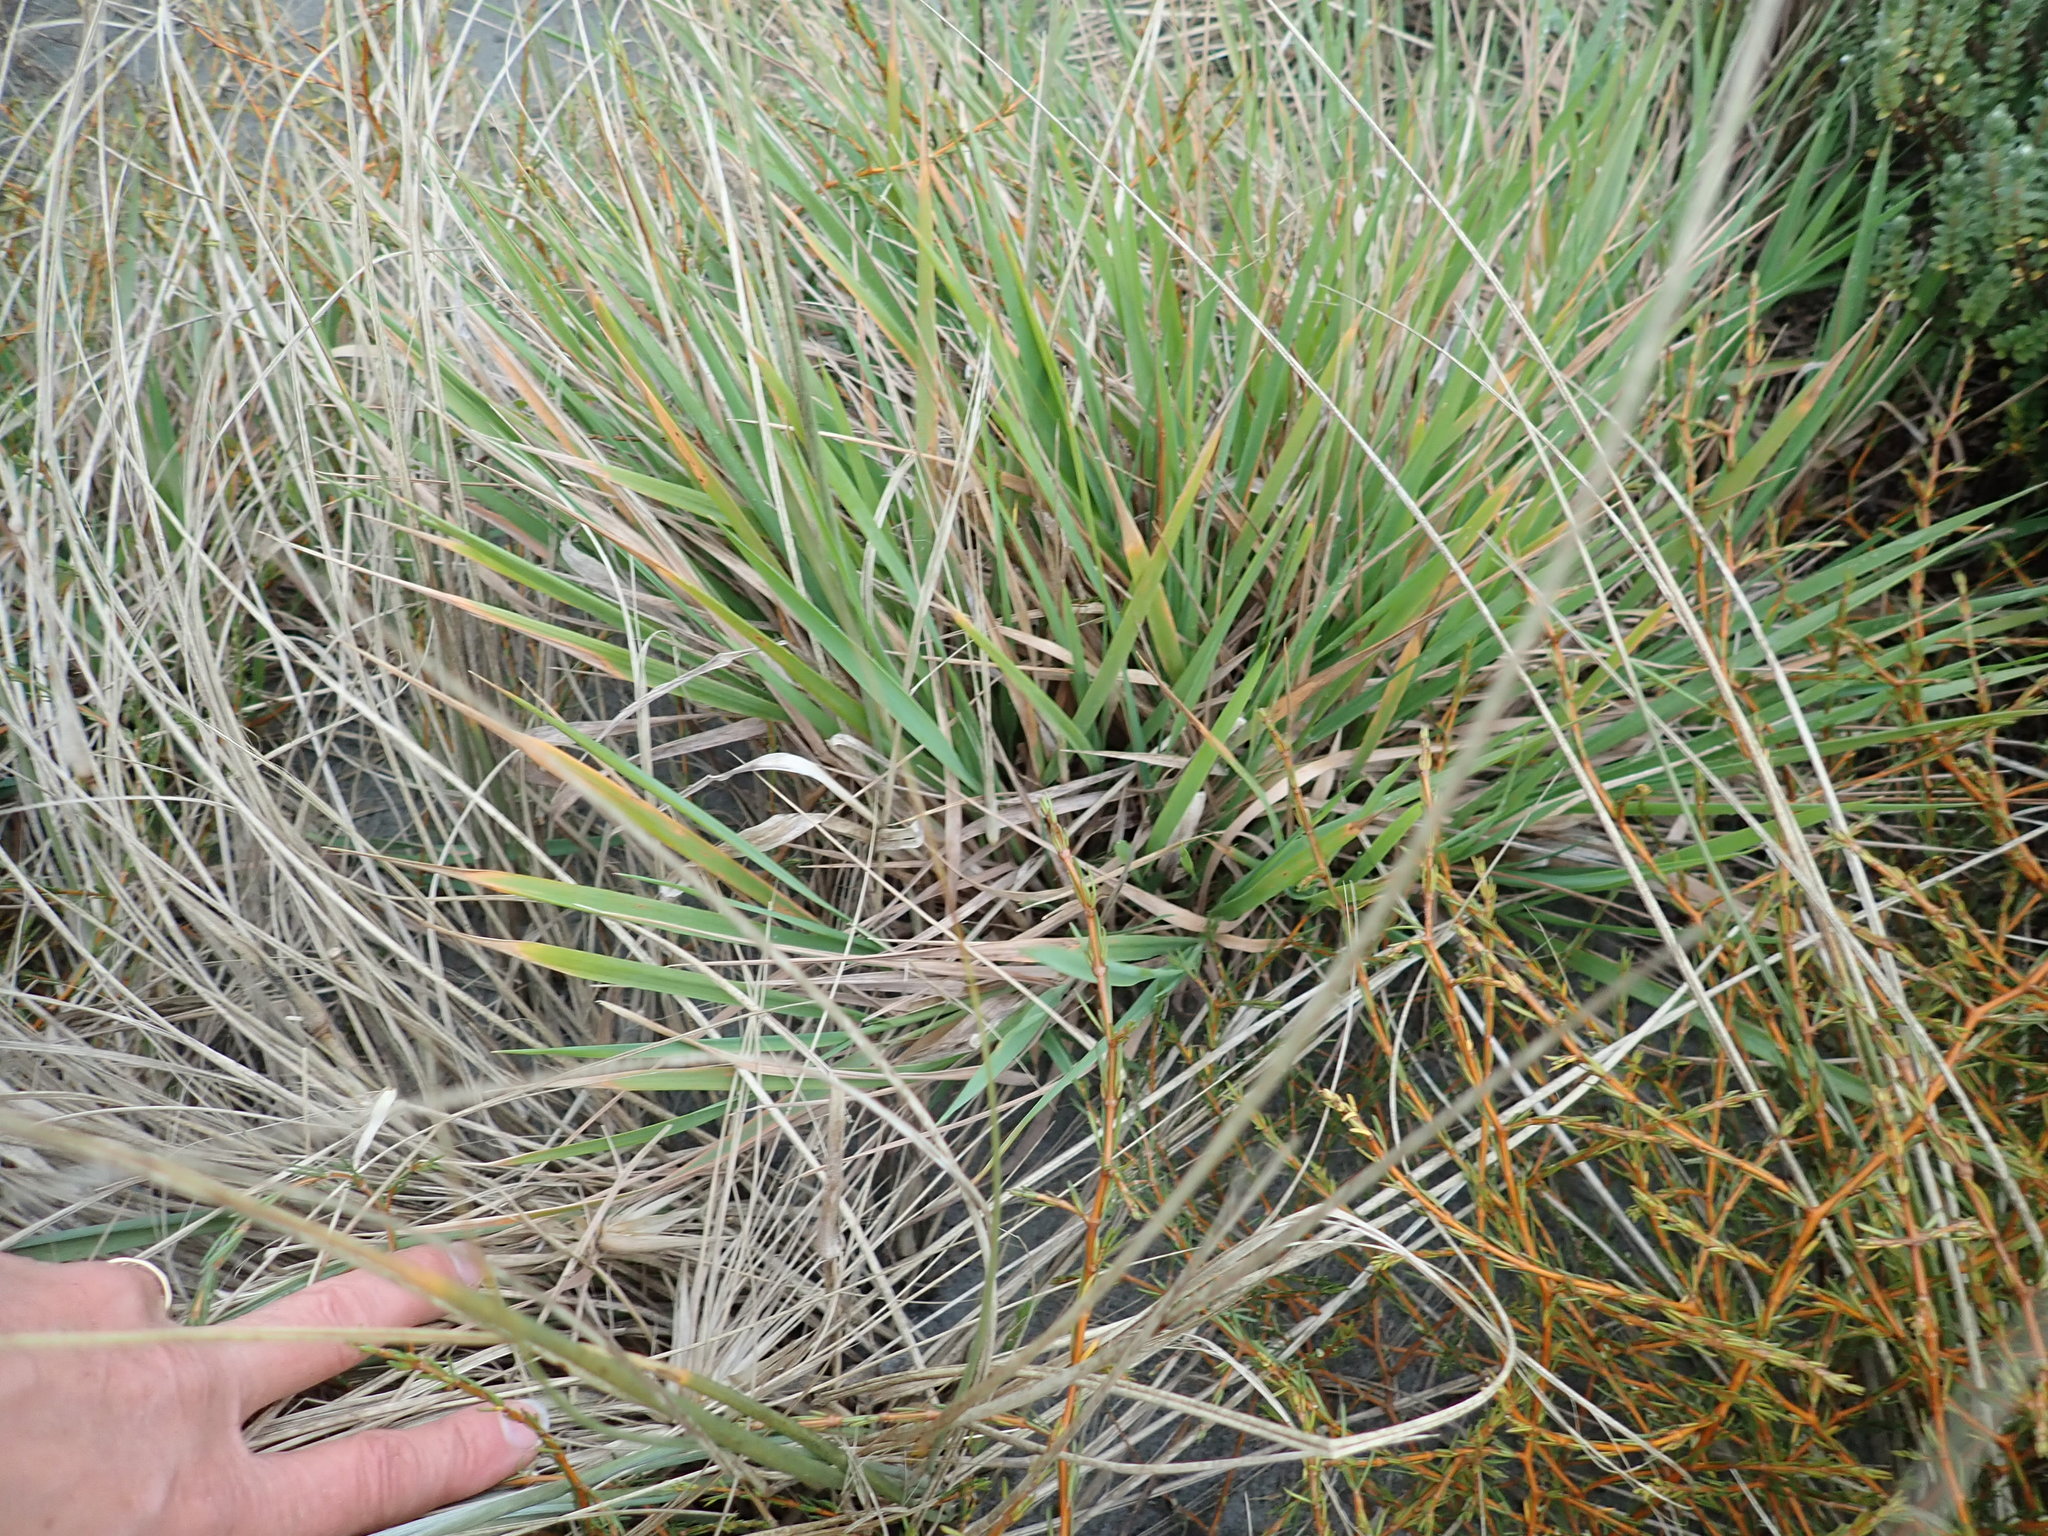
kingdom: Plantae
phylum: Tracheophyta
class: Liliopsida
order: Poales
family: Poaceae
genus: Lachnagrostis
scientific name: Lachnagrostis billardierei
